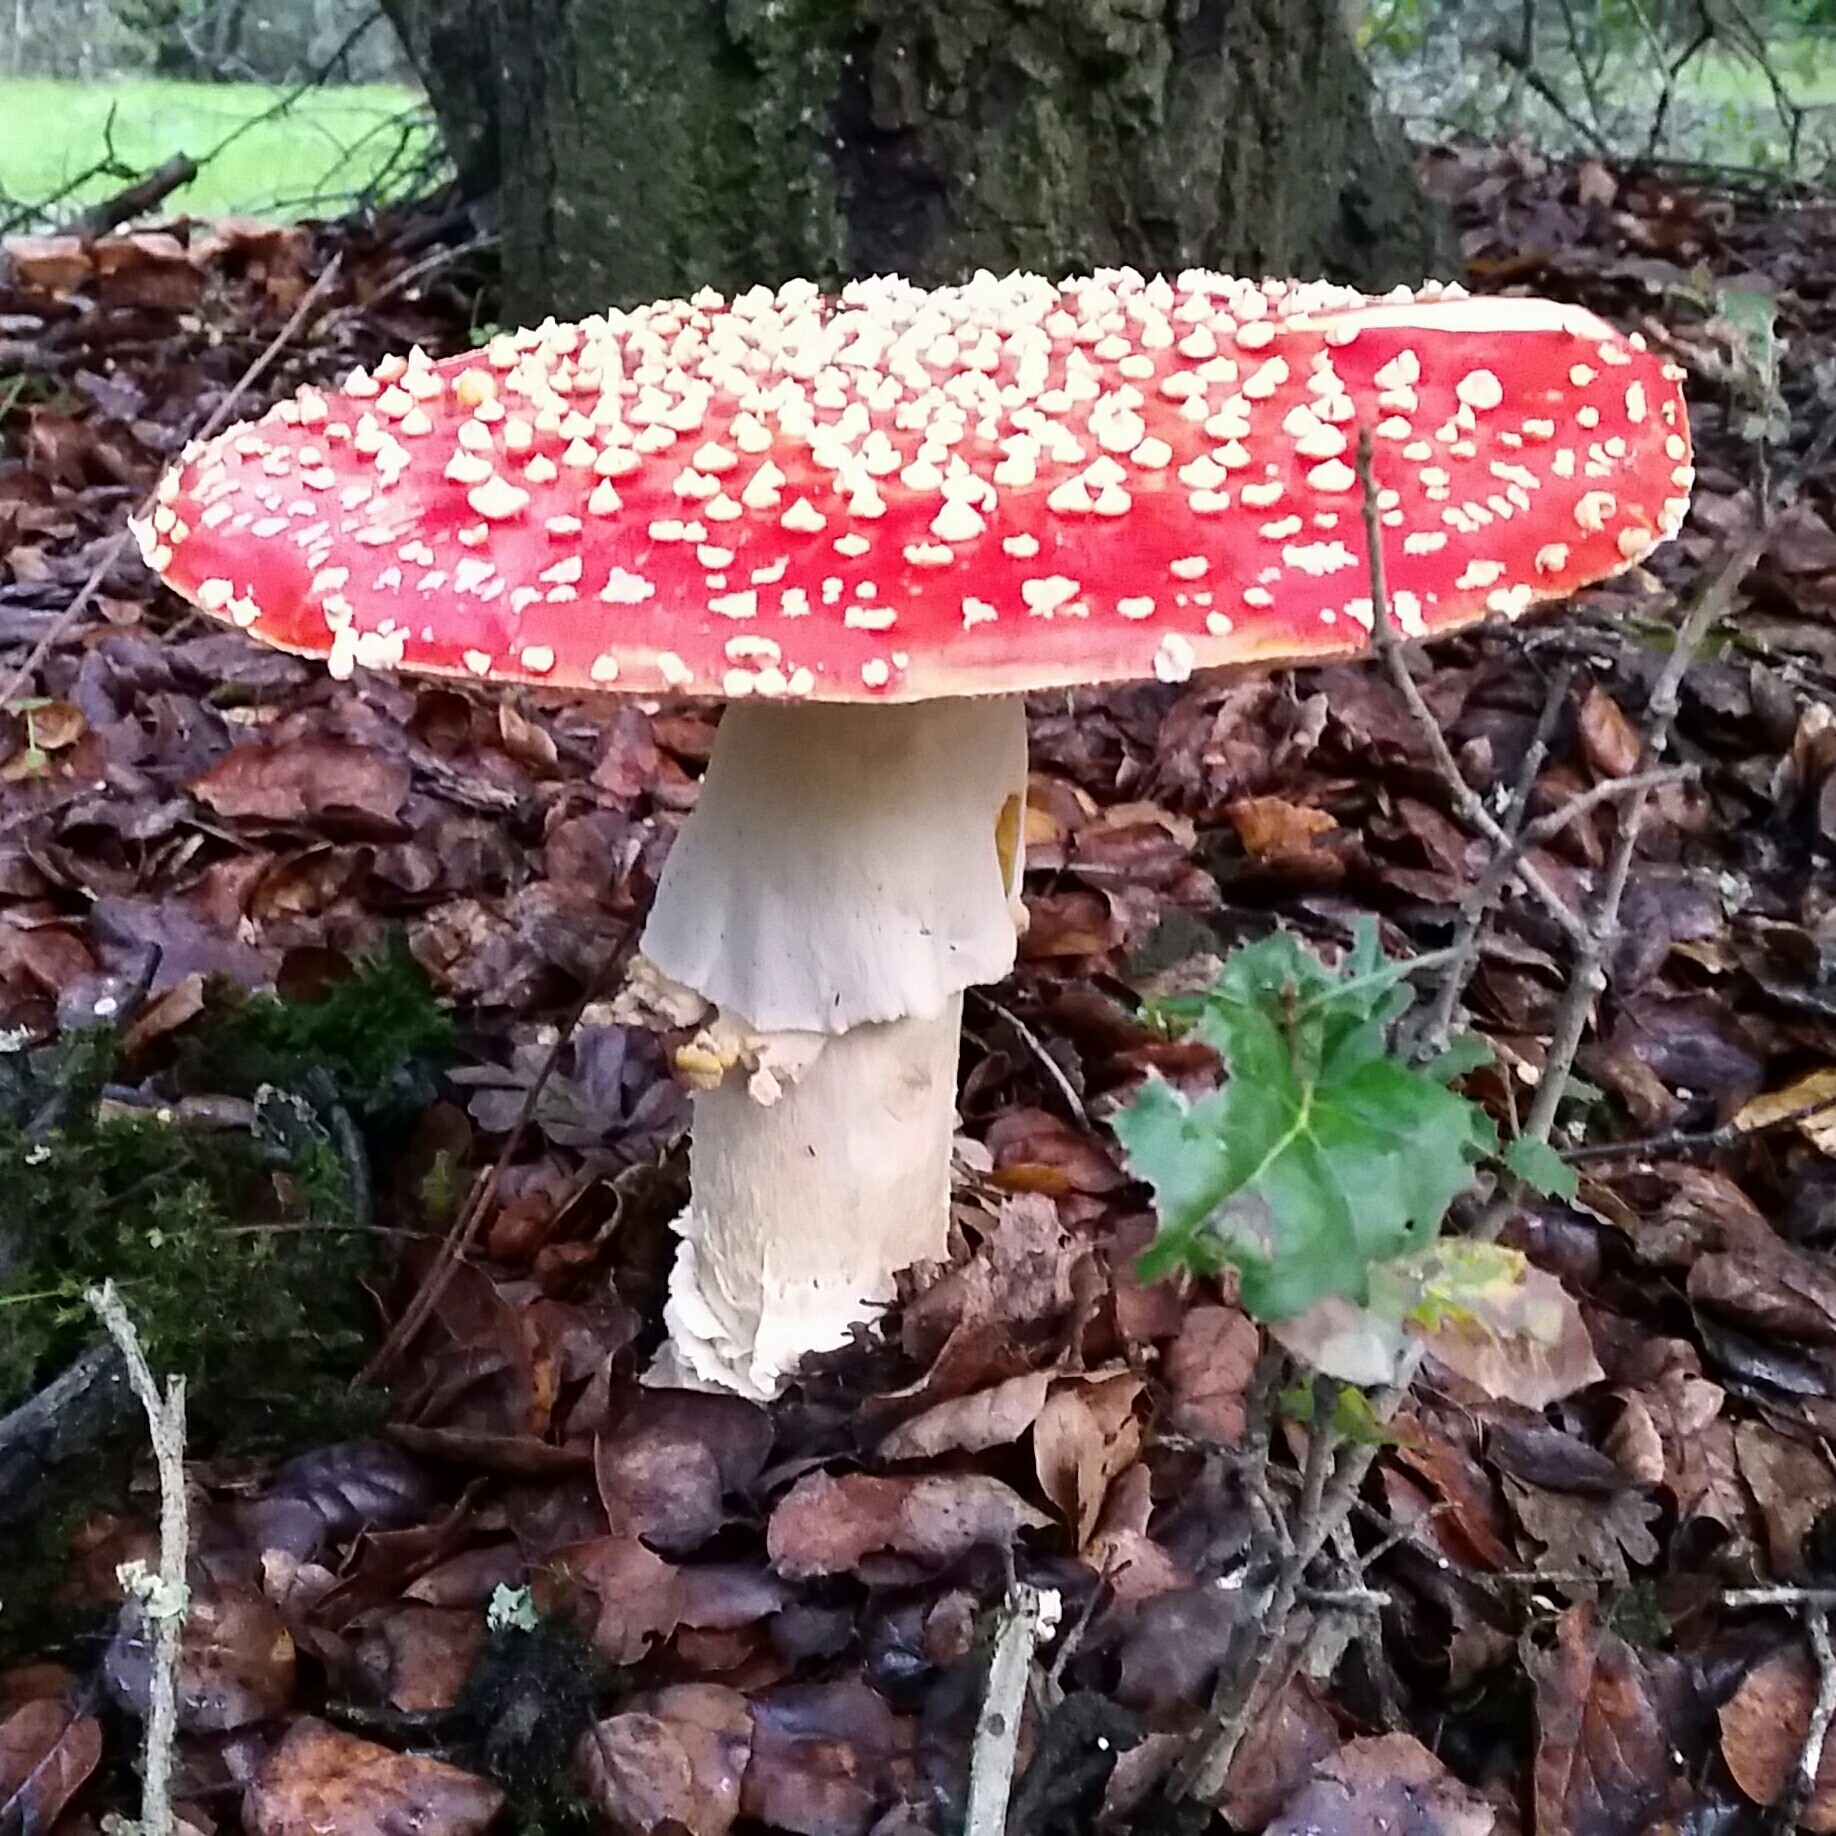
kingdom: Fungi
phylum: Basidiomycota
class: Agaricomycetes
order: Agaricales
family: Amanitaceae
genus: Amanita
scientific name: Amanita muscaria
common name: Fly agaric
